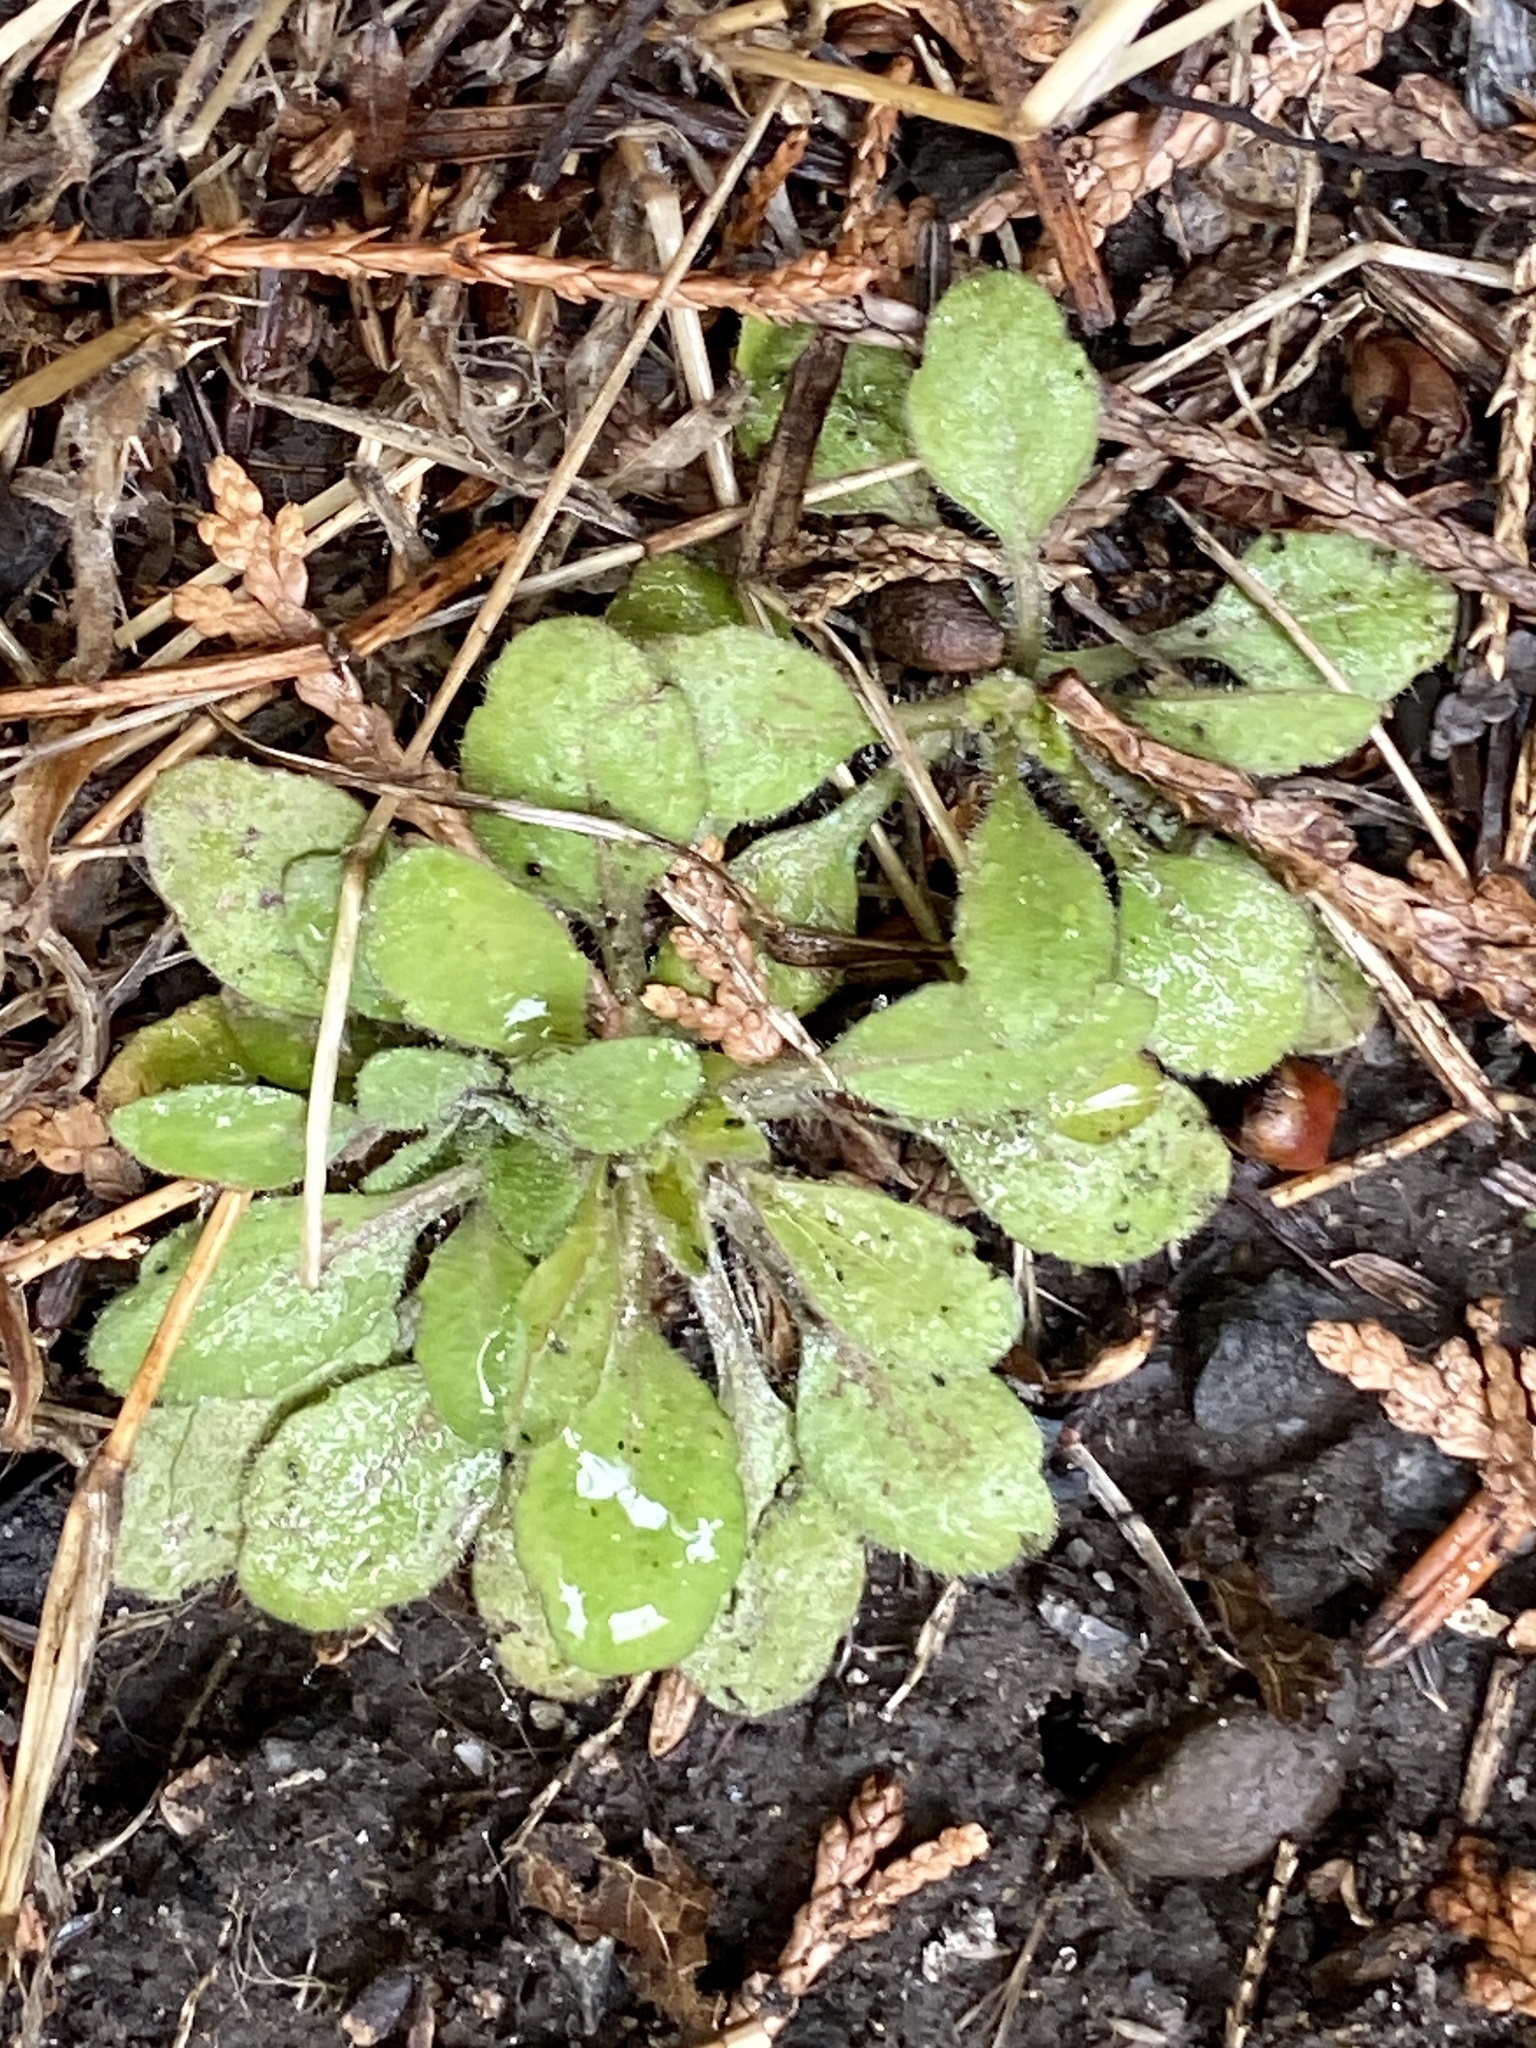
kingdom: Plantae
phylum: Tracheophyta
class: Magnoliopsida
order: Asterales
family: Asteraceae
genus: Erigeron
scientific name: Erigeron canadensis
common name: Canadian fleabane
